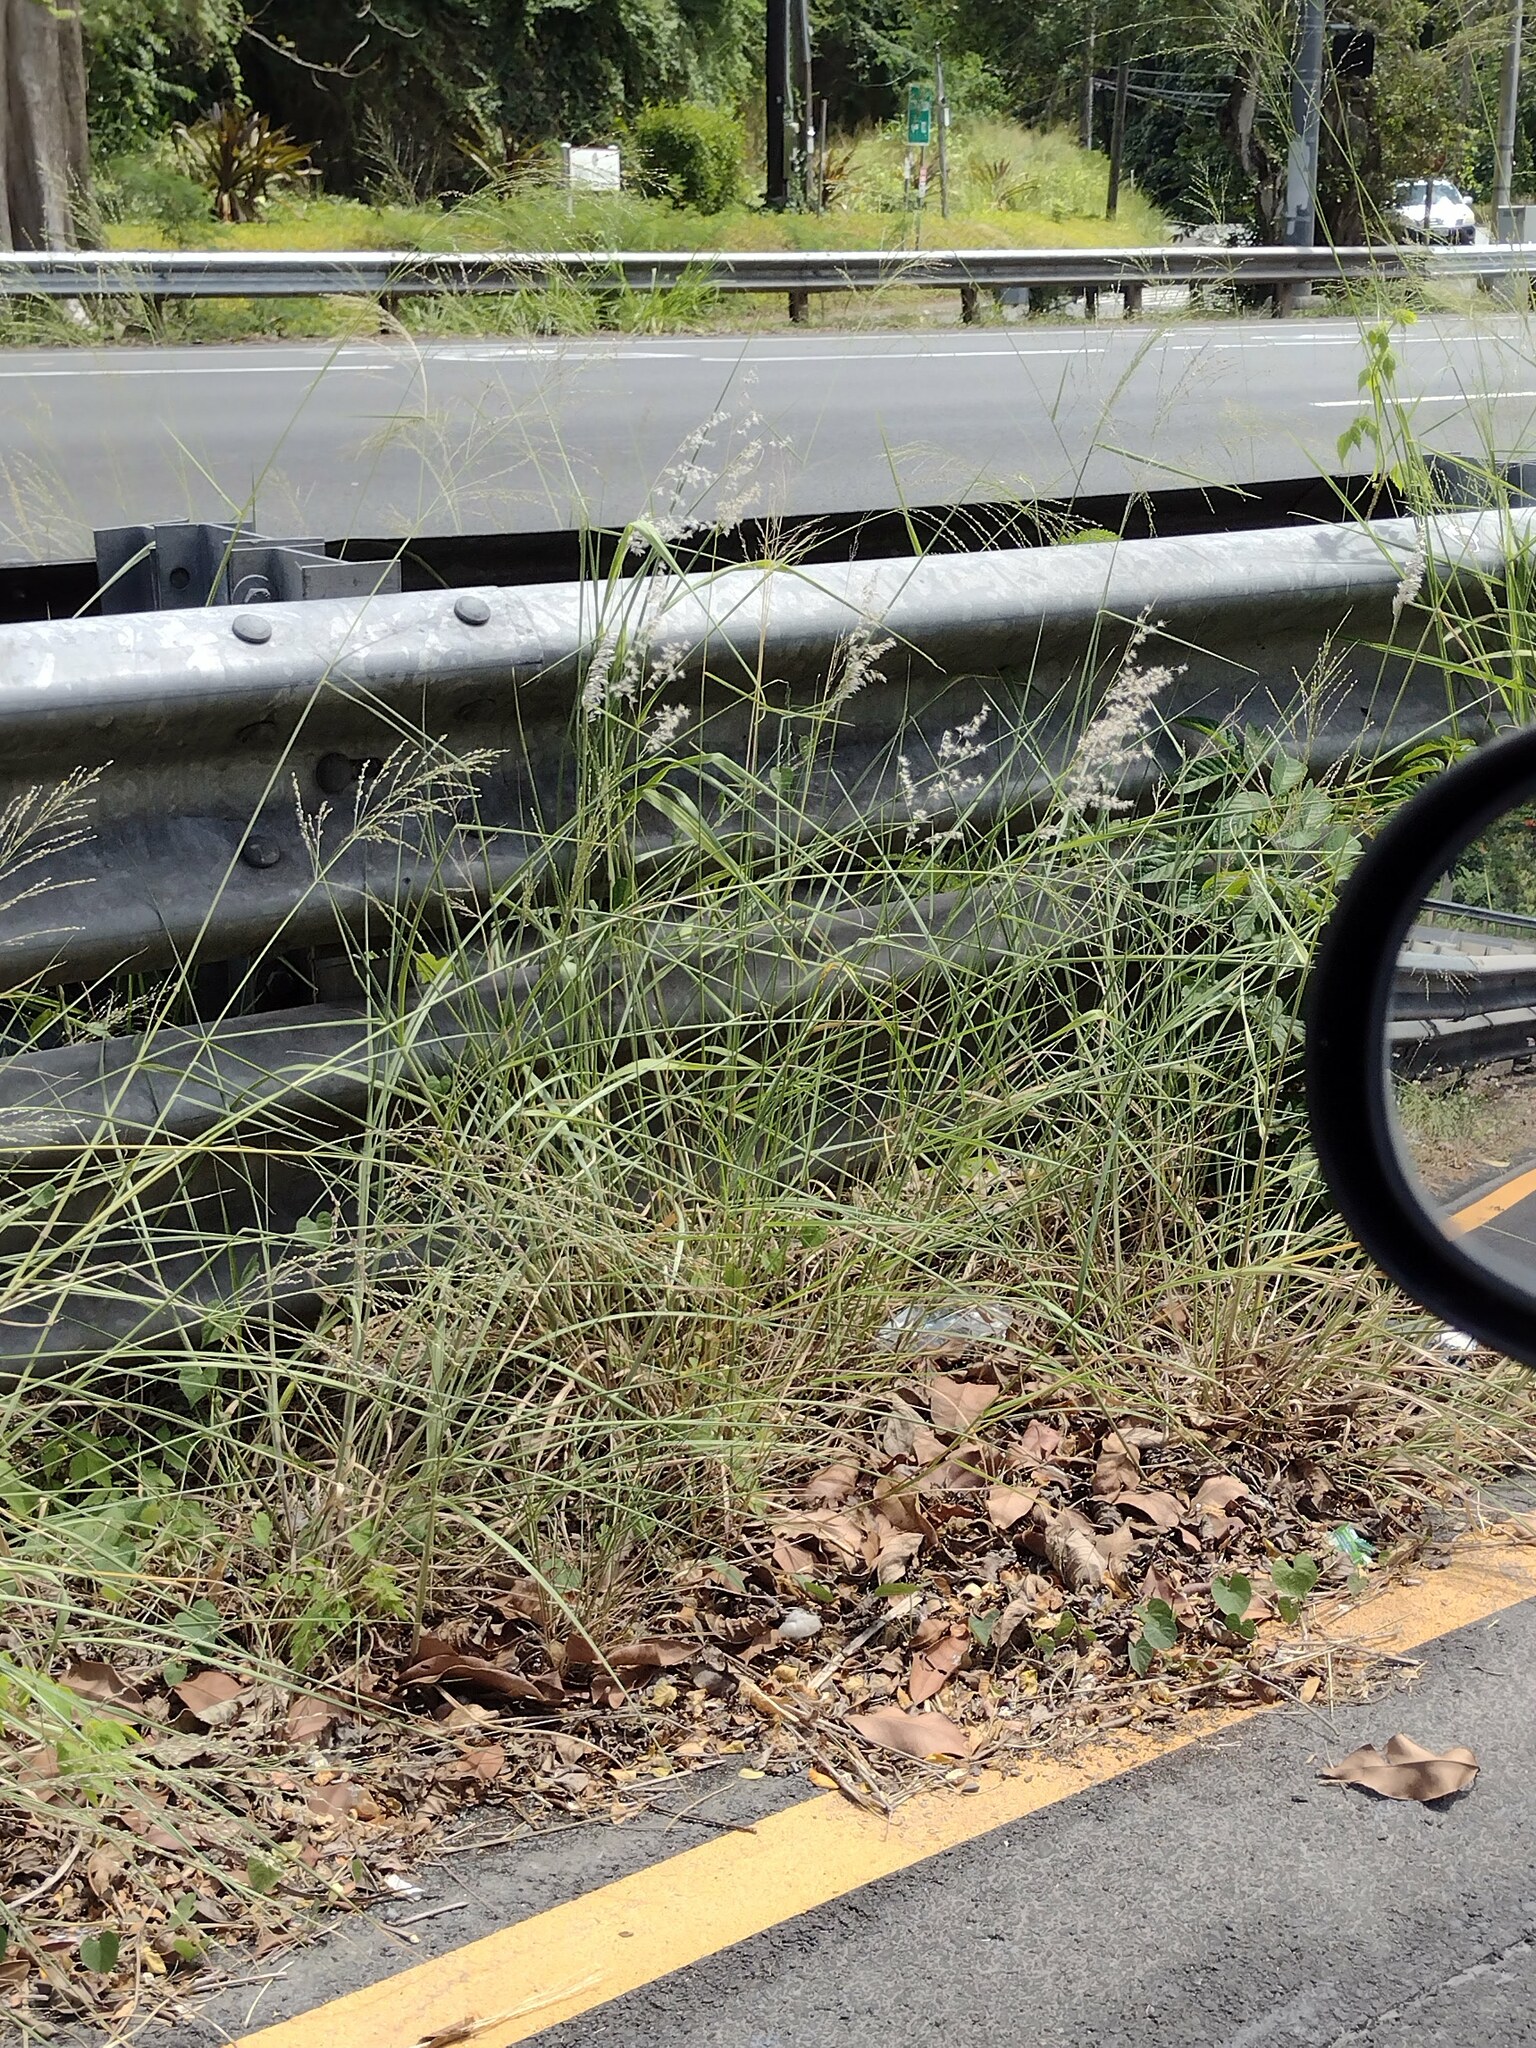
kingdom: Plantae
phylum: Tracheophyta
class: Liliopsida
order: Poales
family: Poaceae
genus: Melinis
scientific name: Melinis repens
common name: Rose natal grass
